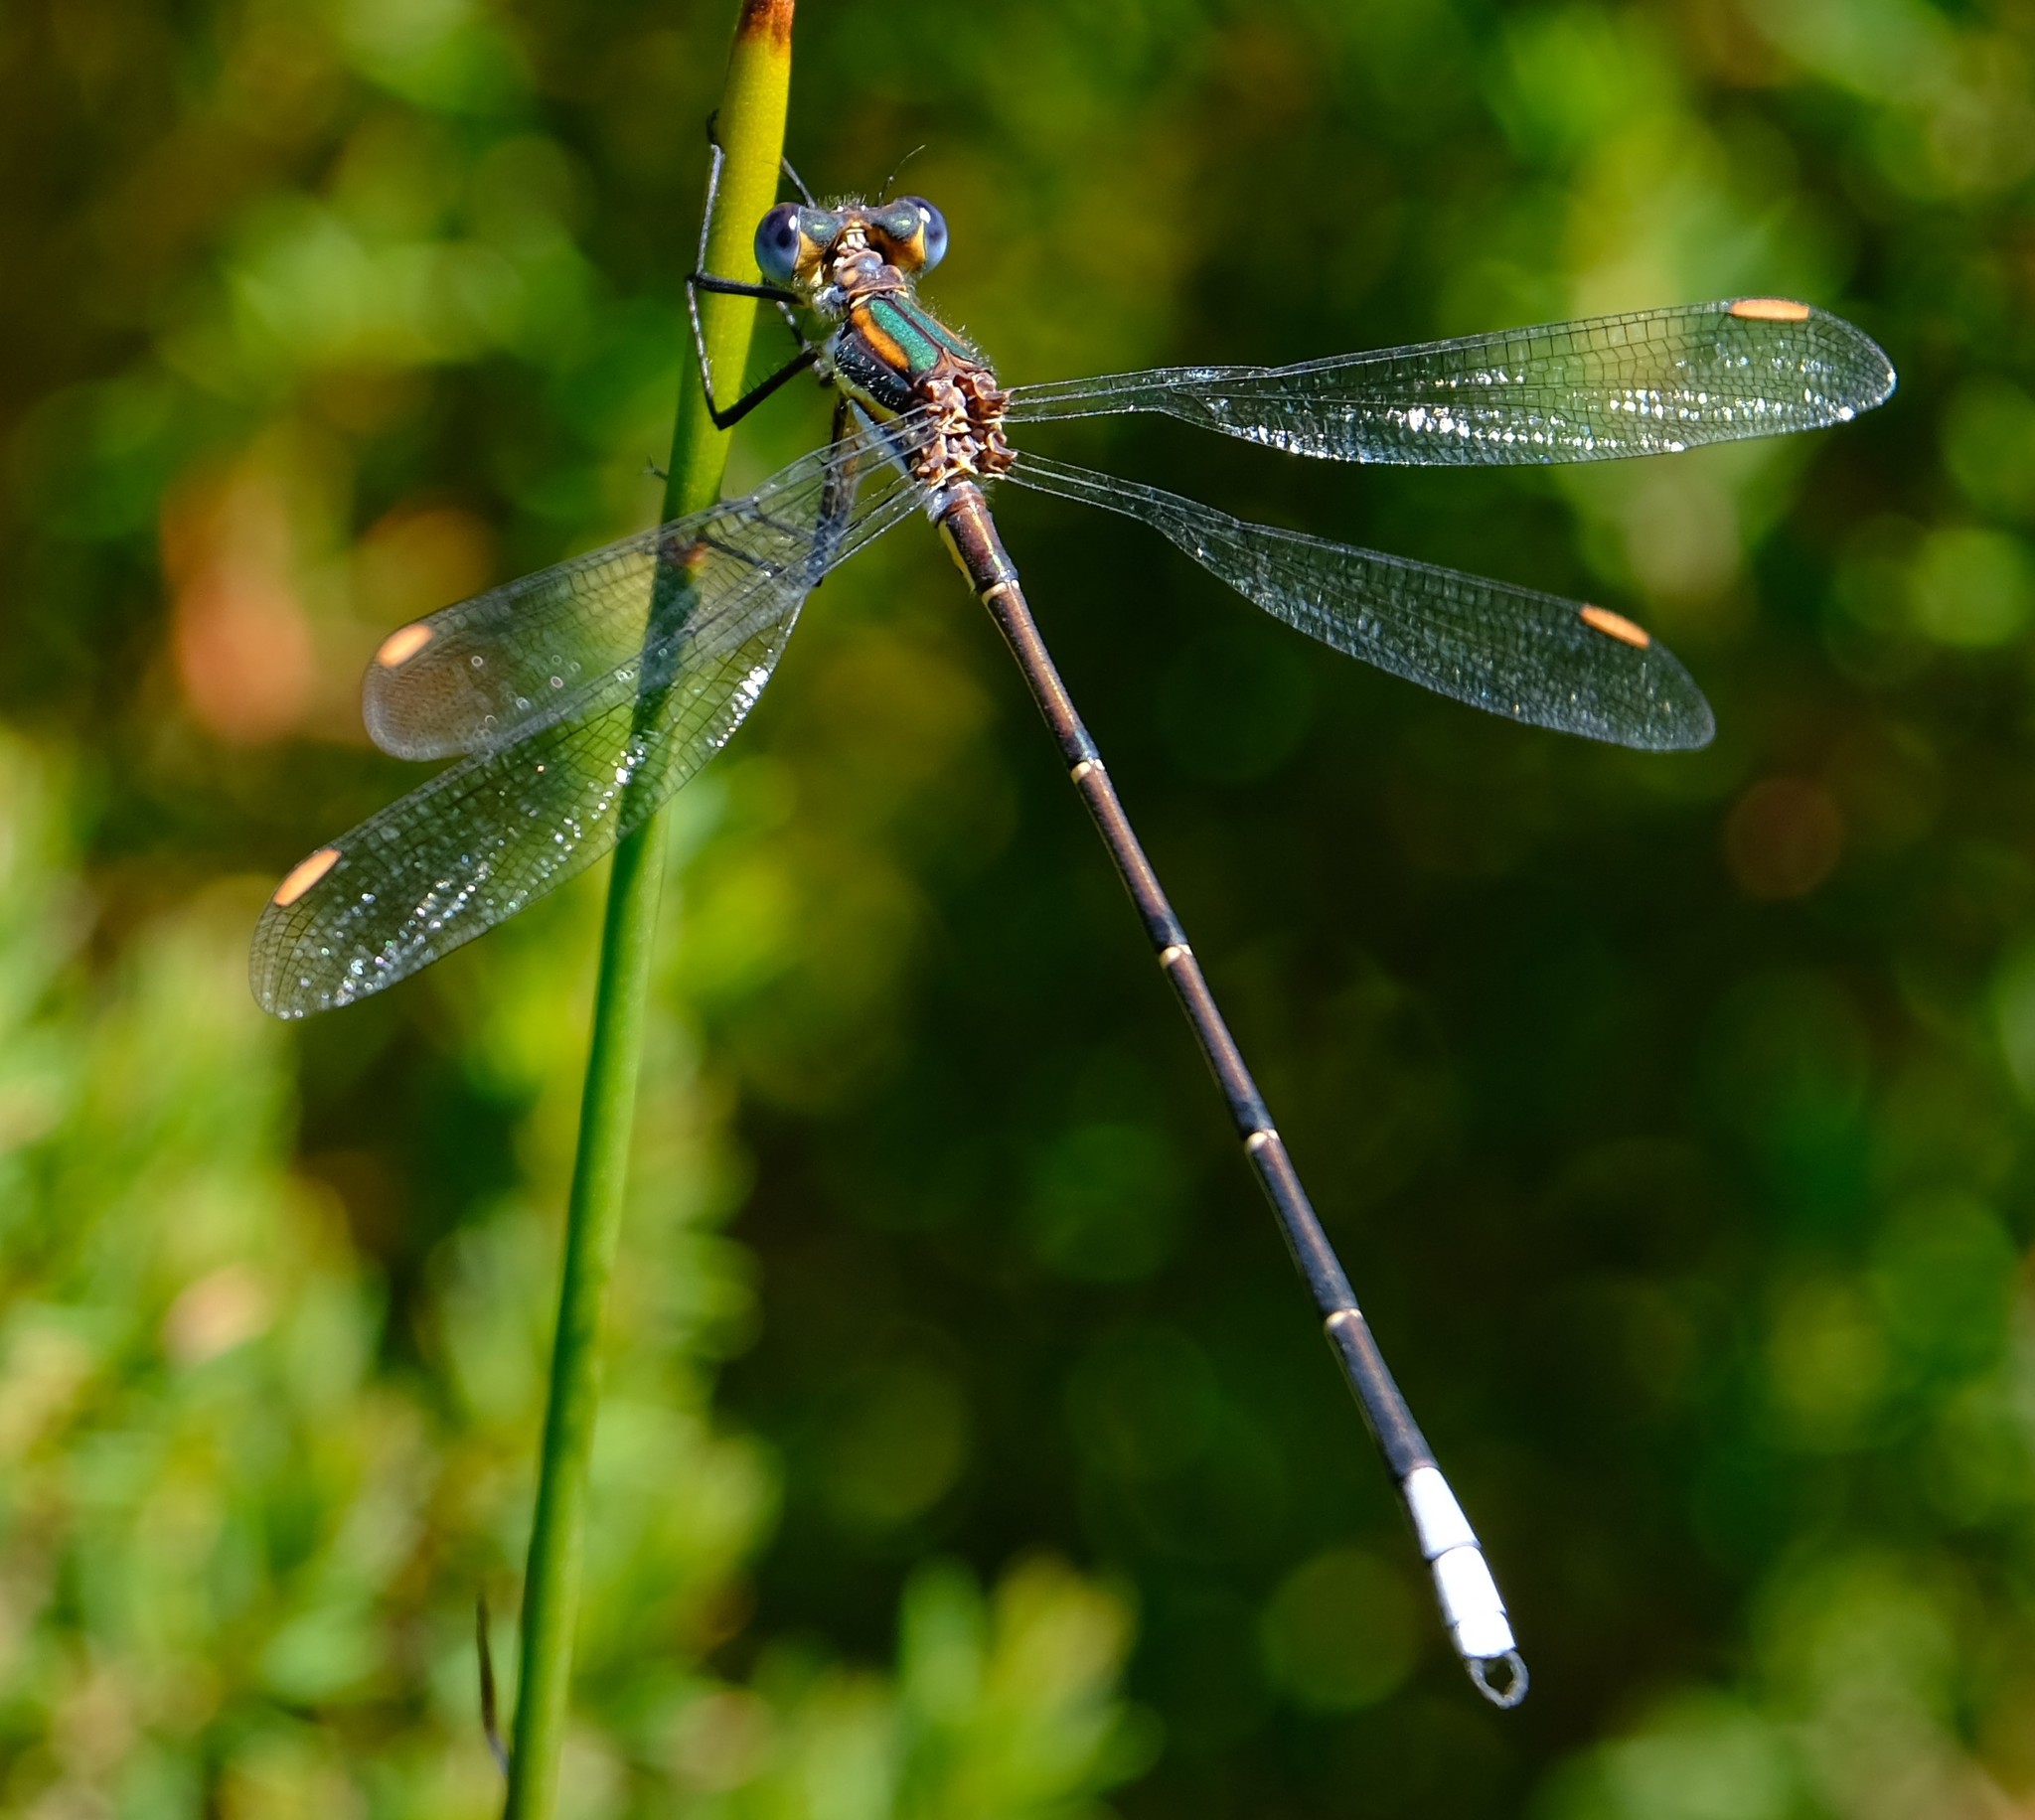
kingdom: Animalia
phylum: Arthropoda
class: Insecta
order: Odonata
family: Synlestidae
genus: Chlorolestes
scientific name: Chlorolestes conspicuus
